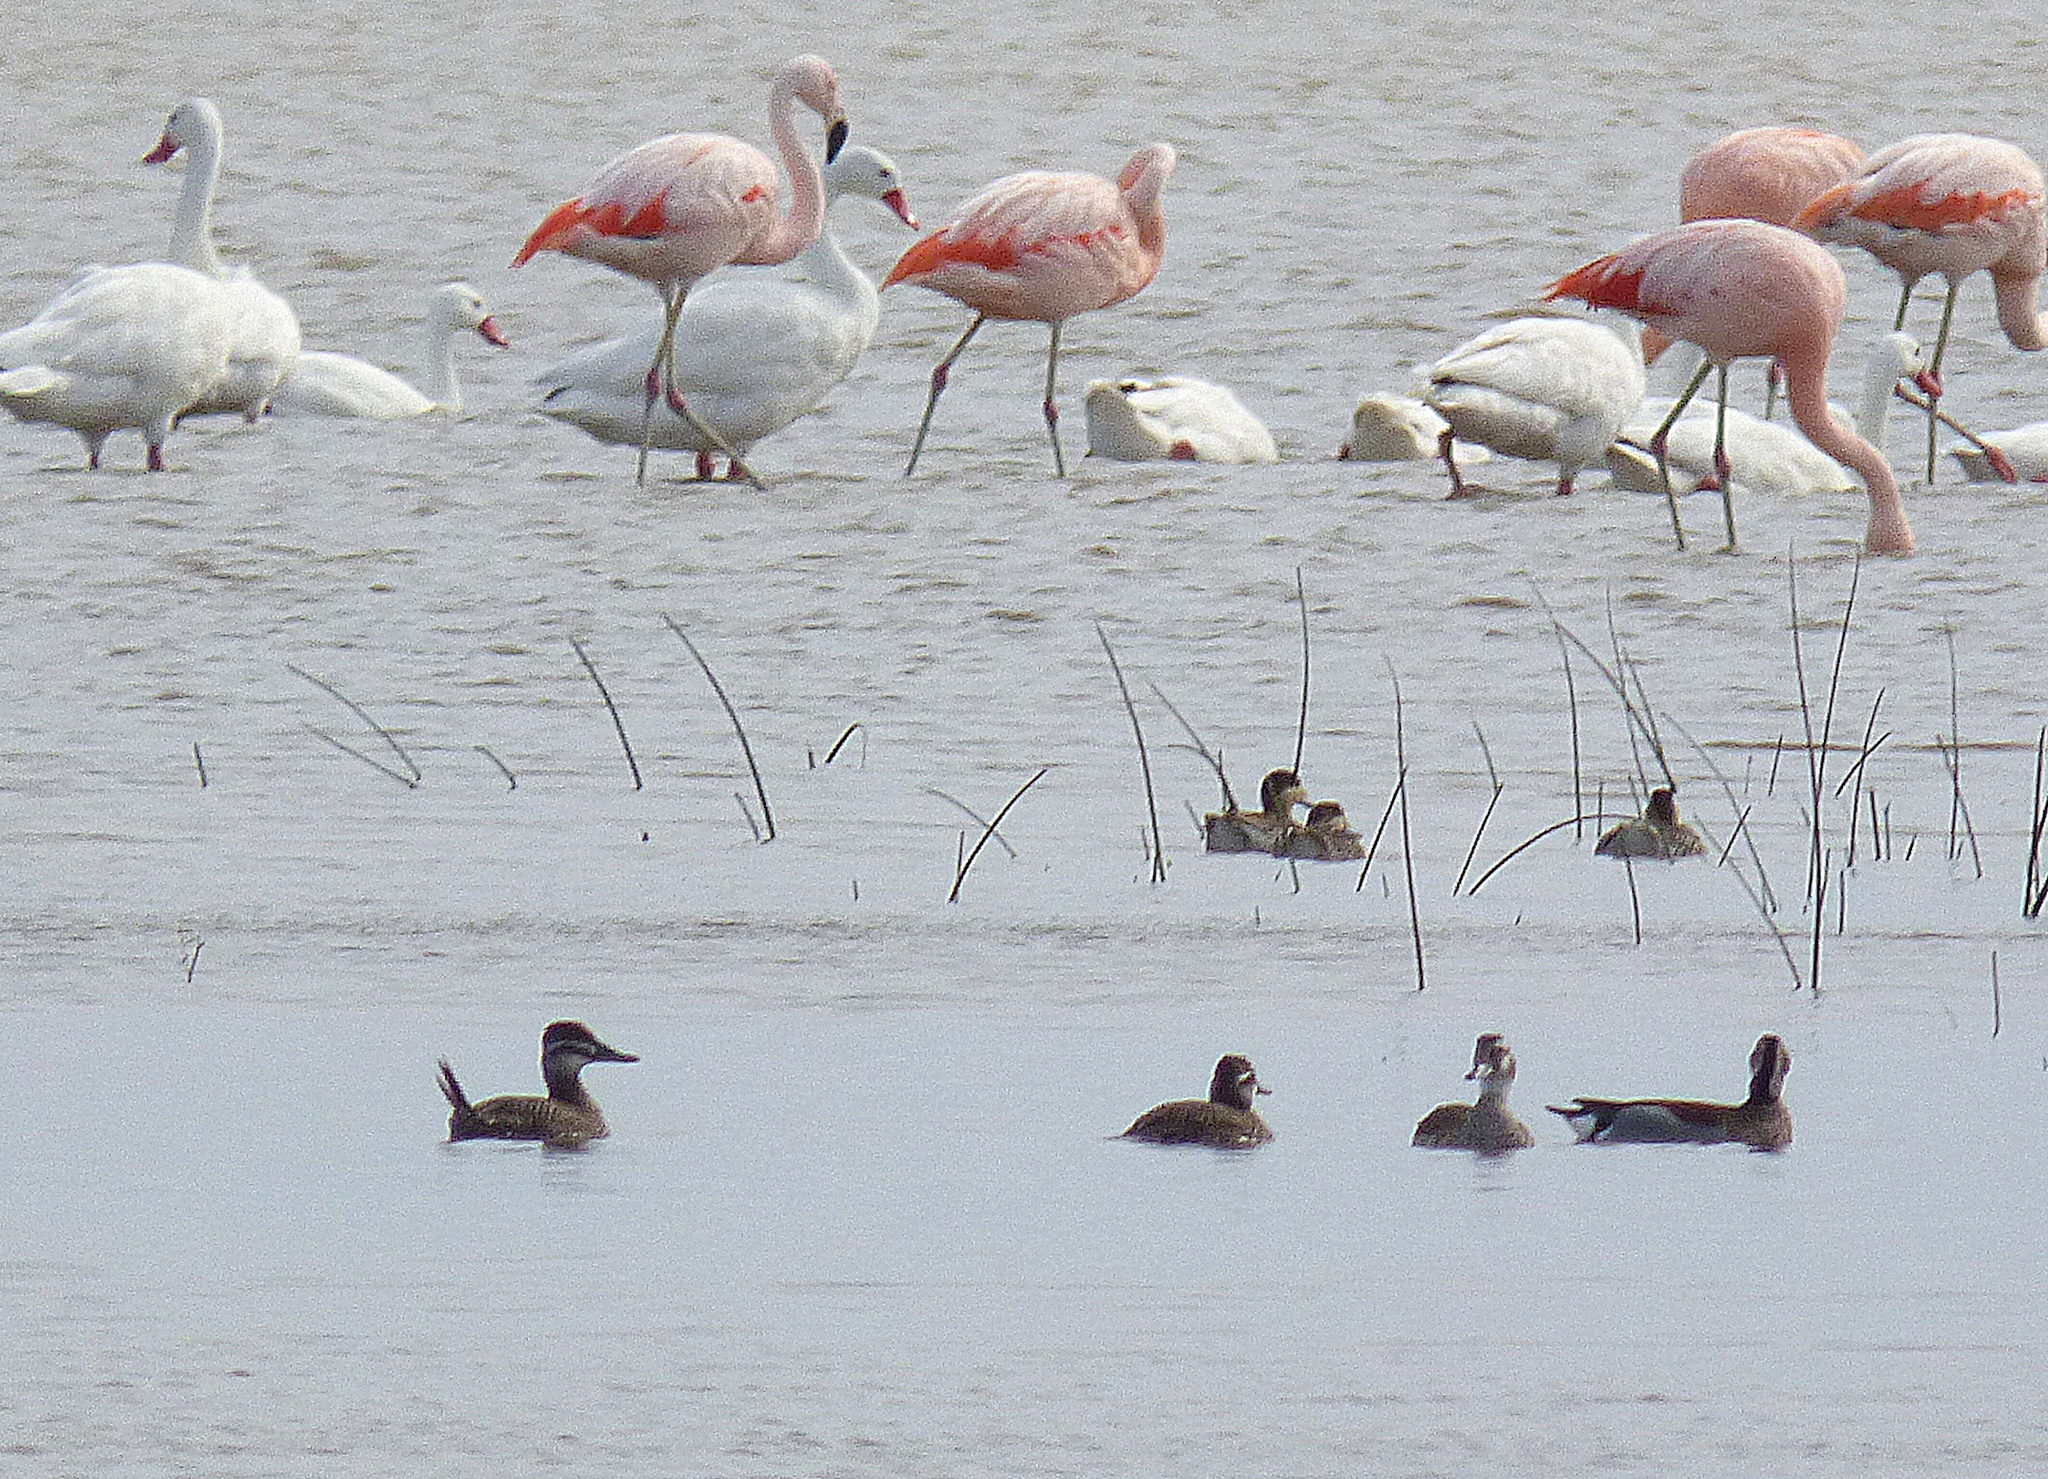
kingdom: Animalia
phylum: Chordata
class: Aves
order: Anseriformes
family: Anatidae
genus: Oxyura
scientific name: Oxyura vittata
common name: Lake duck
